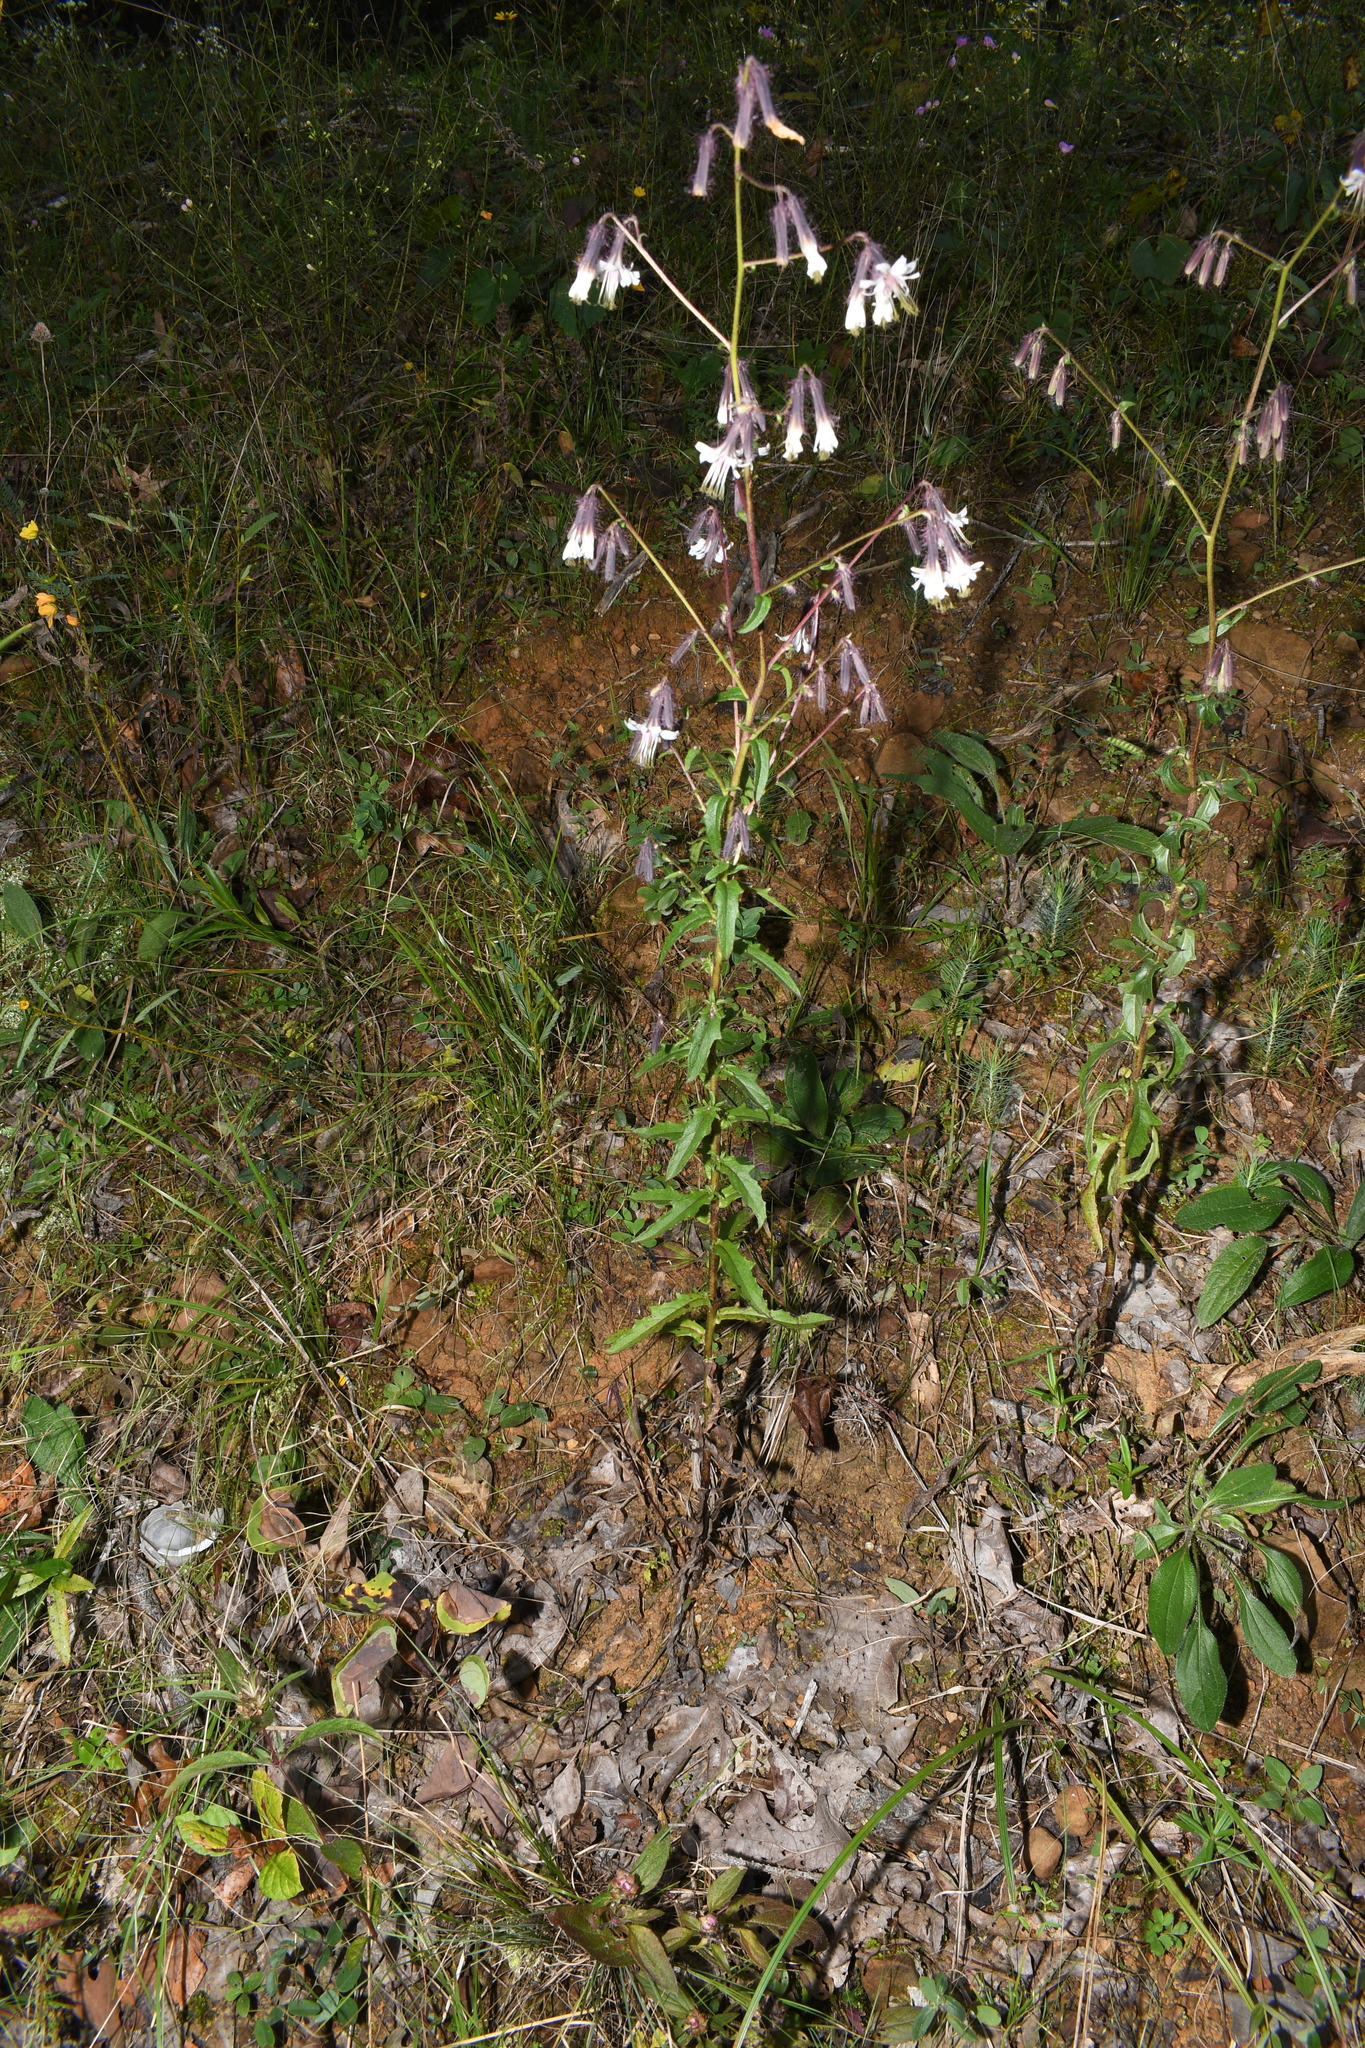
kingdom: Plantae
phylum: Tracheophyta
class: Magnoliopsida
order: Asterales
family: Asteraceae
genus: Nabalus
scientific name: Nabalus barbata
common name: Barbed rattlesnakeroot
